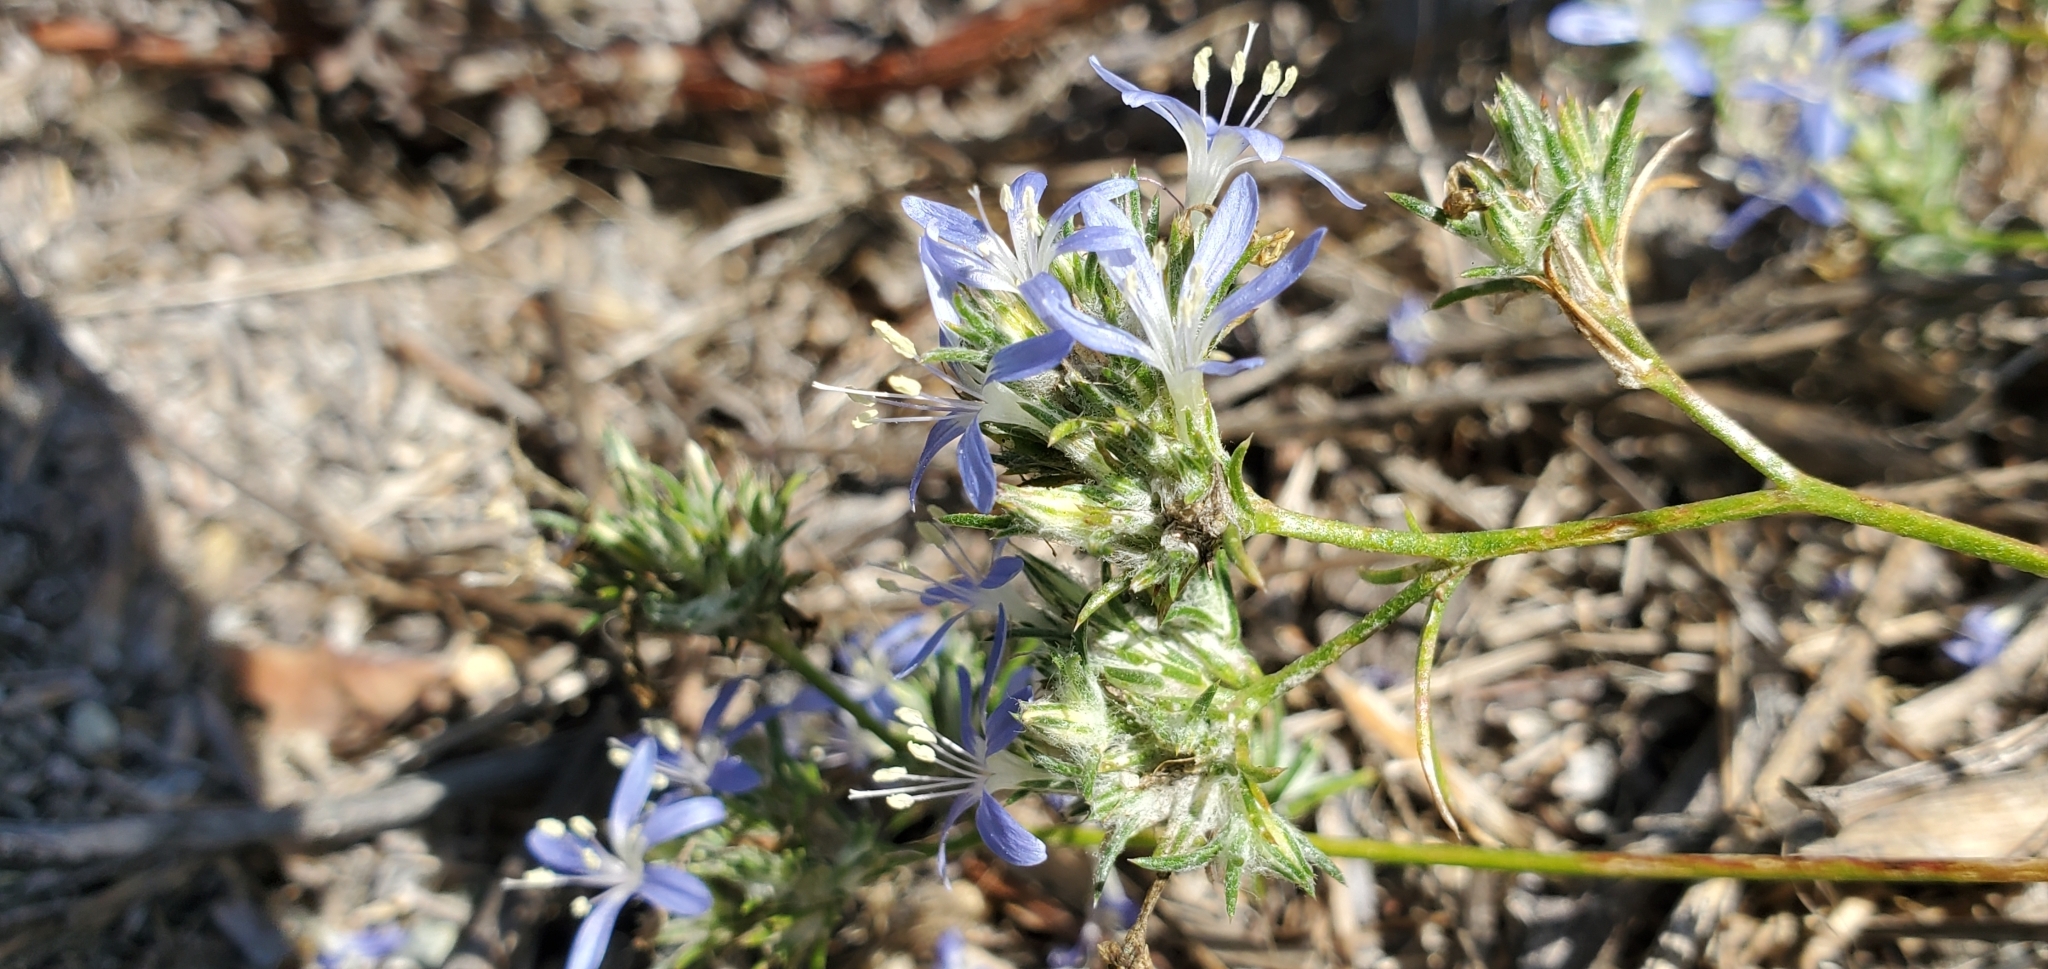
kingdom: Plantae
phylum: Tracheophyta
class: Magnoliopsida
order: Ericales
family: Polemoniaceae
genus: Eriastrum
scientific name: Eriastrum sapphirinum
